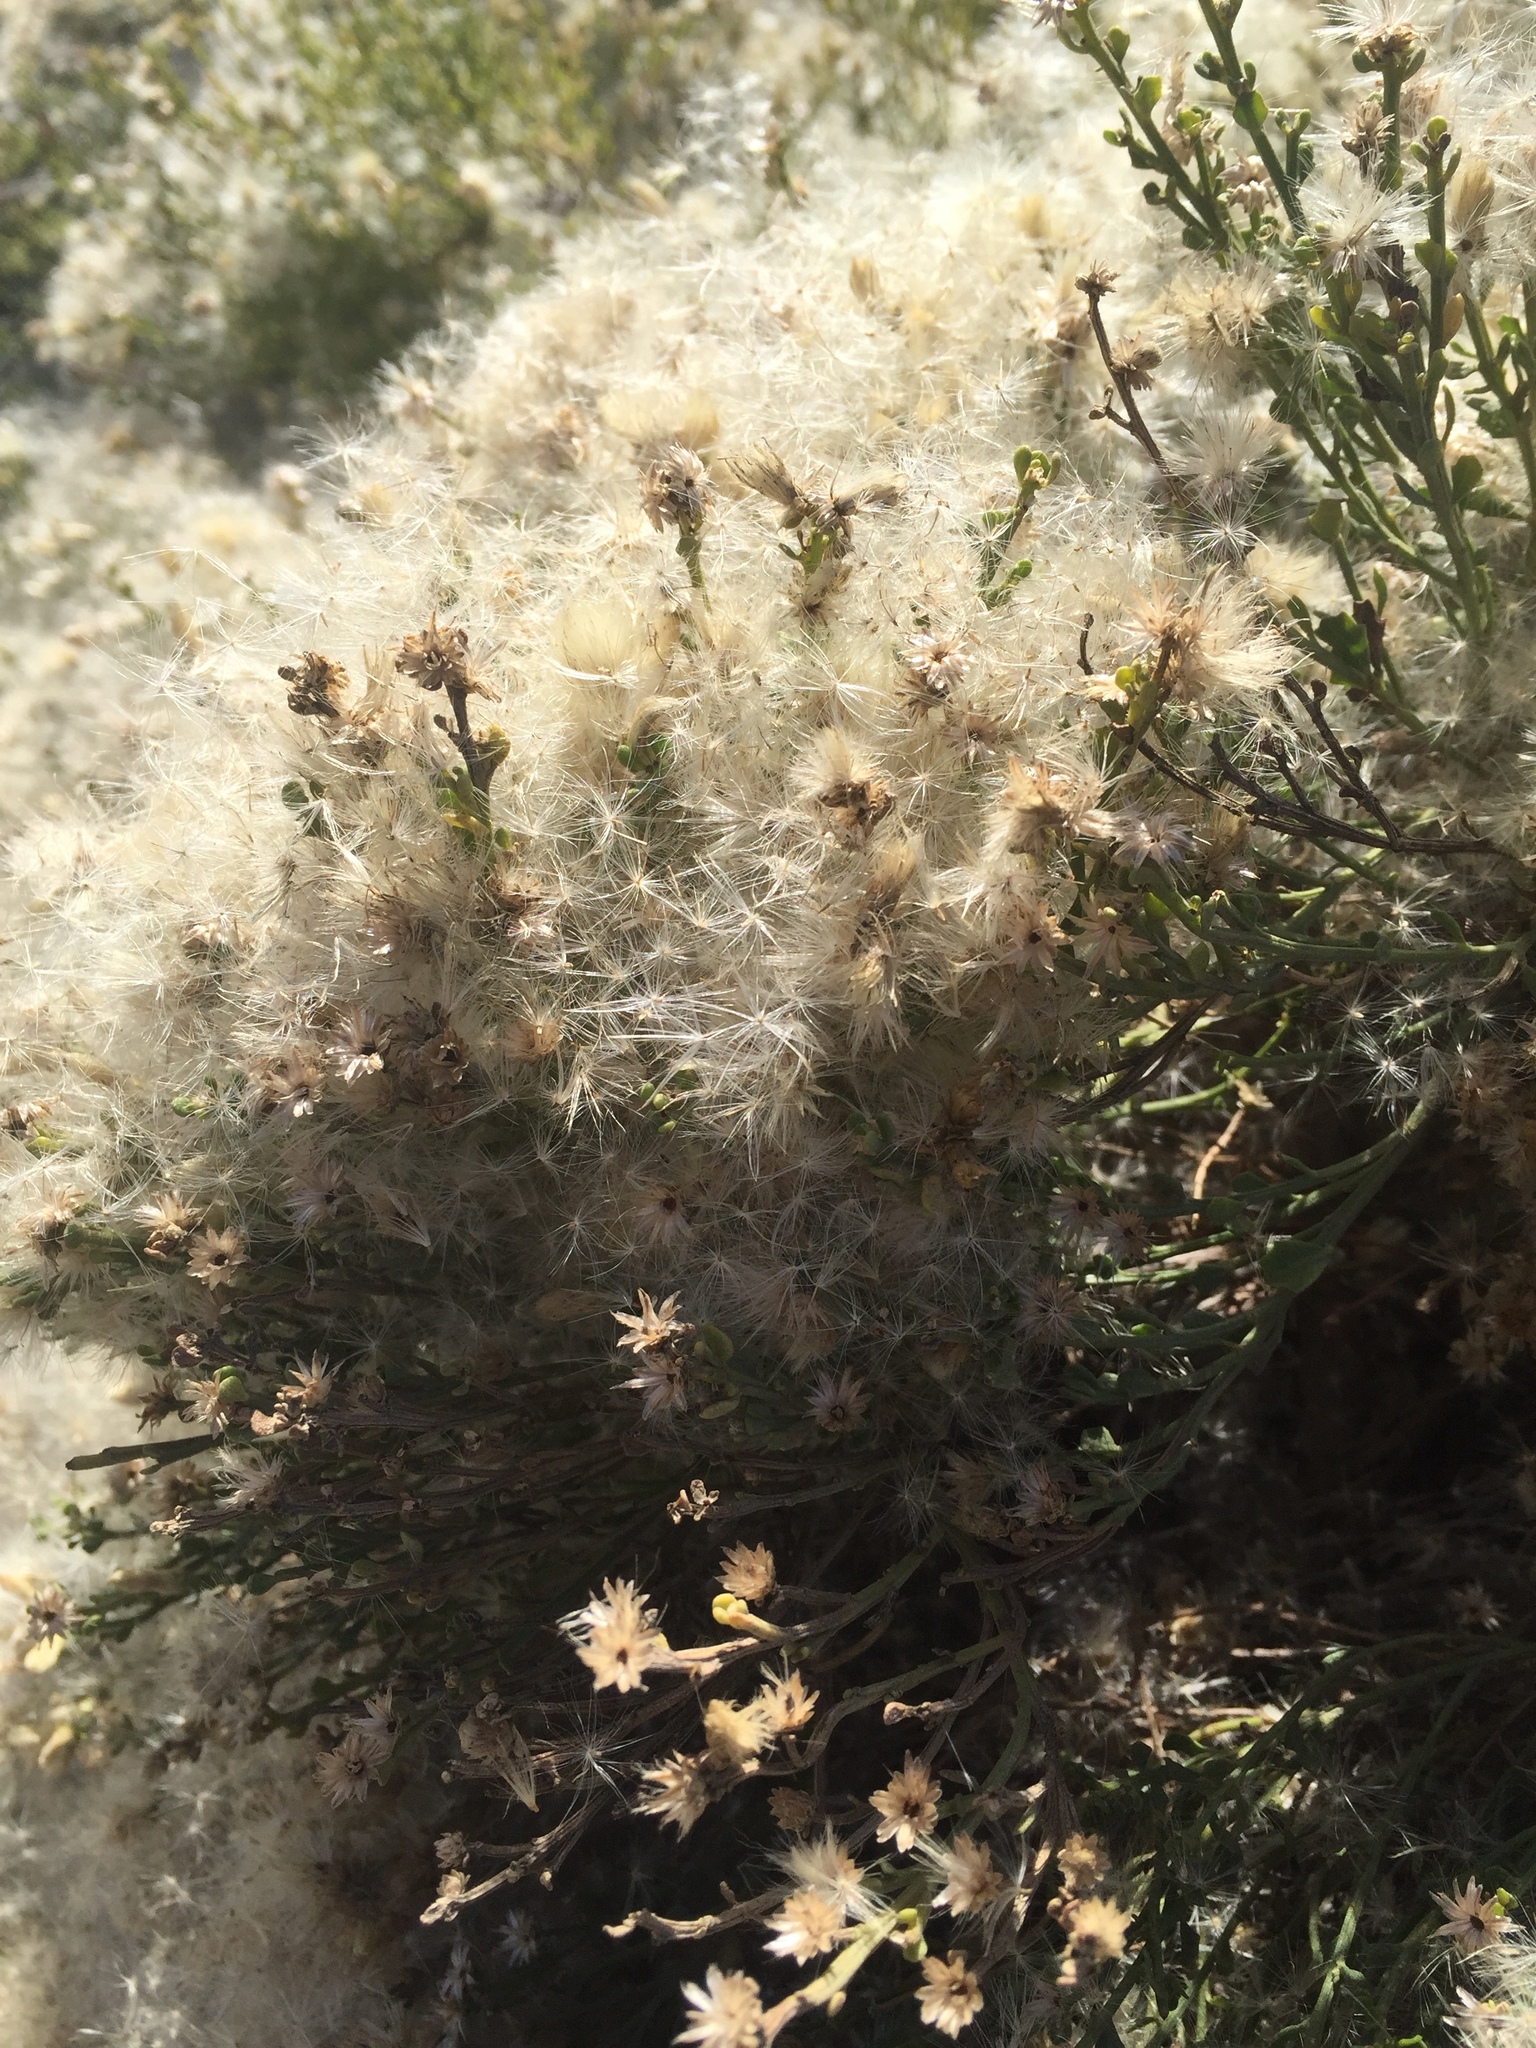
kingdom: Plantae
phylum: Tracheophyta
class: Magnoliopsida
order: Asterales
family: Asteraceae
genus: Baccharis
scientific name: Baccharis pilularis
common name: Coyotebrush
